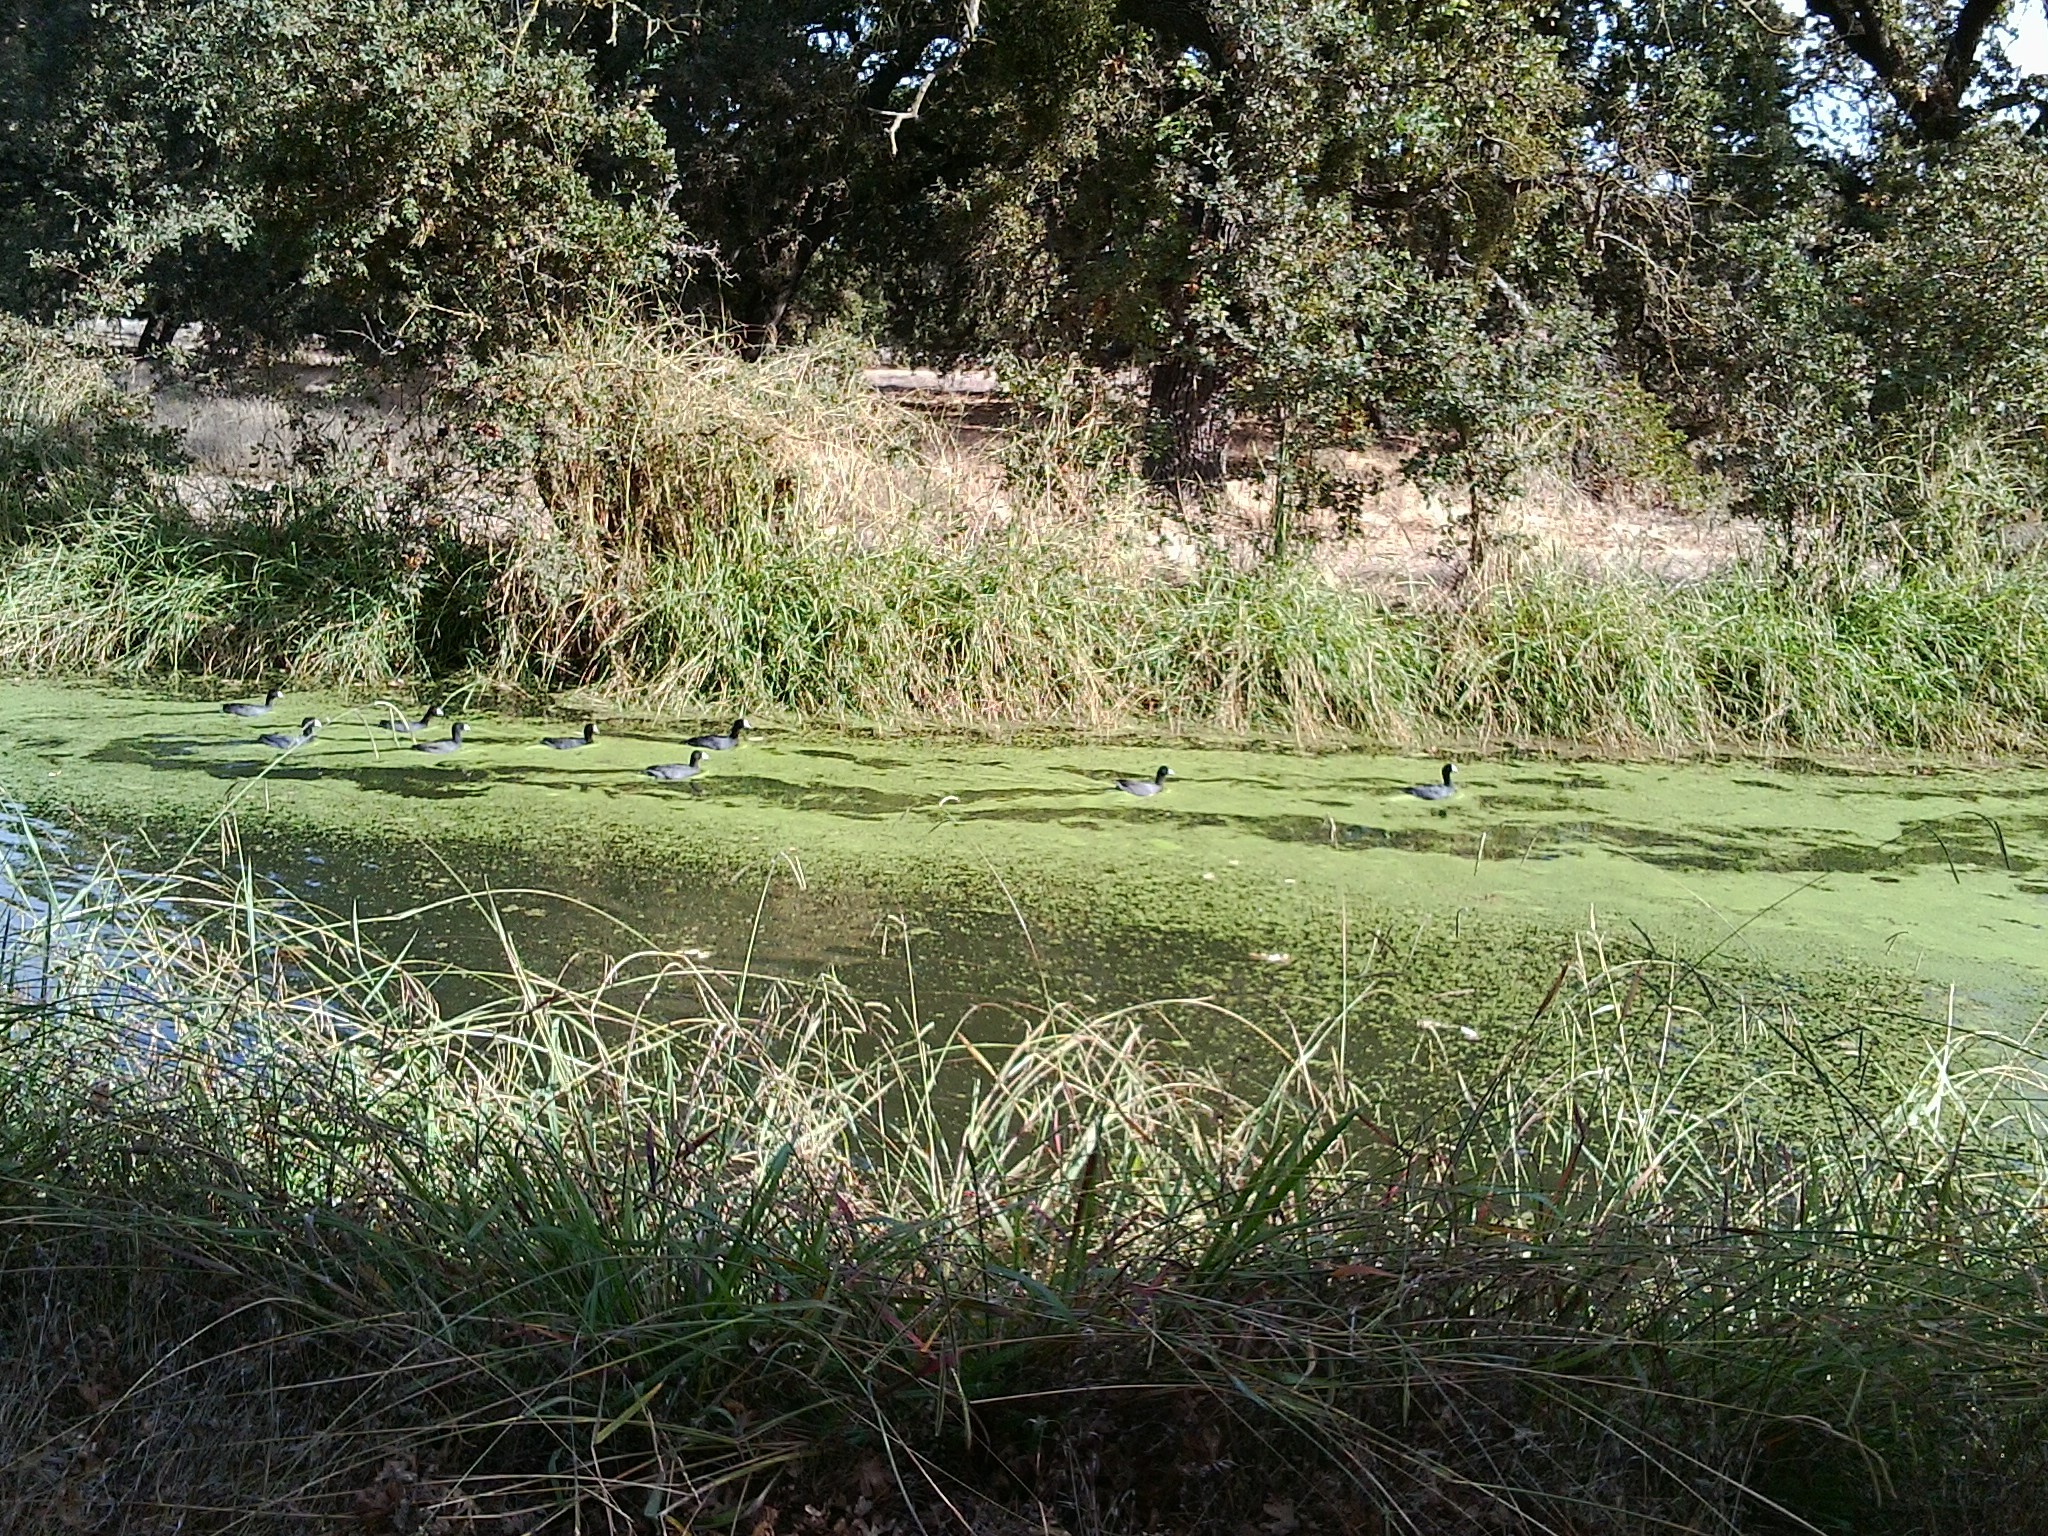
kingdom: Animalia
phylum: Chordata
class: Aves
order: Gruiformes
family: Rallidae
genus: Fulica
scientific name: Fulica americana
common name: American coot
